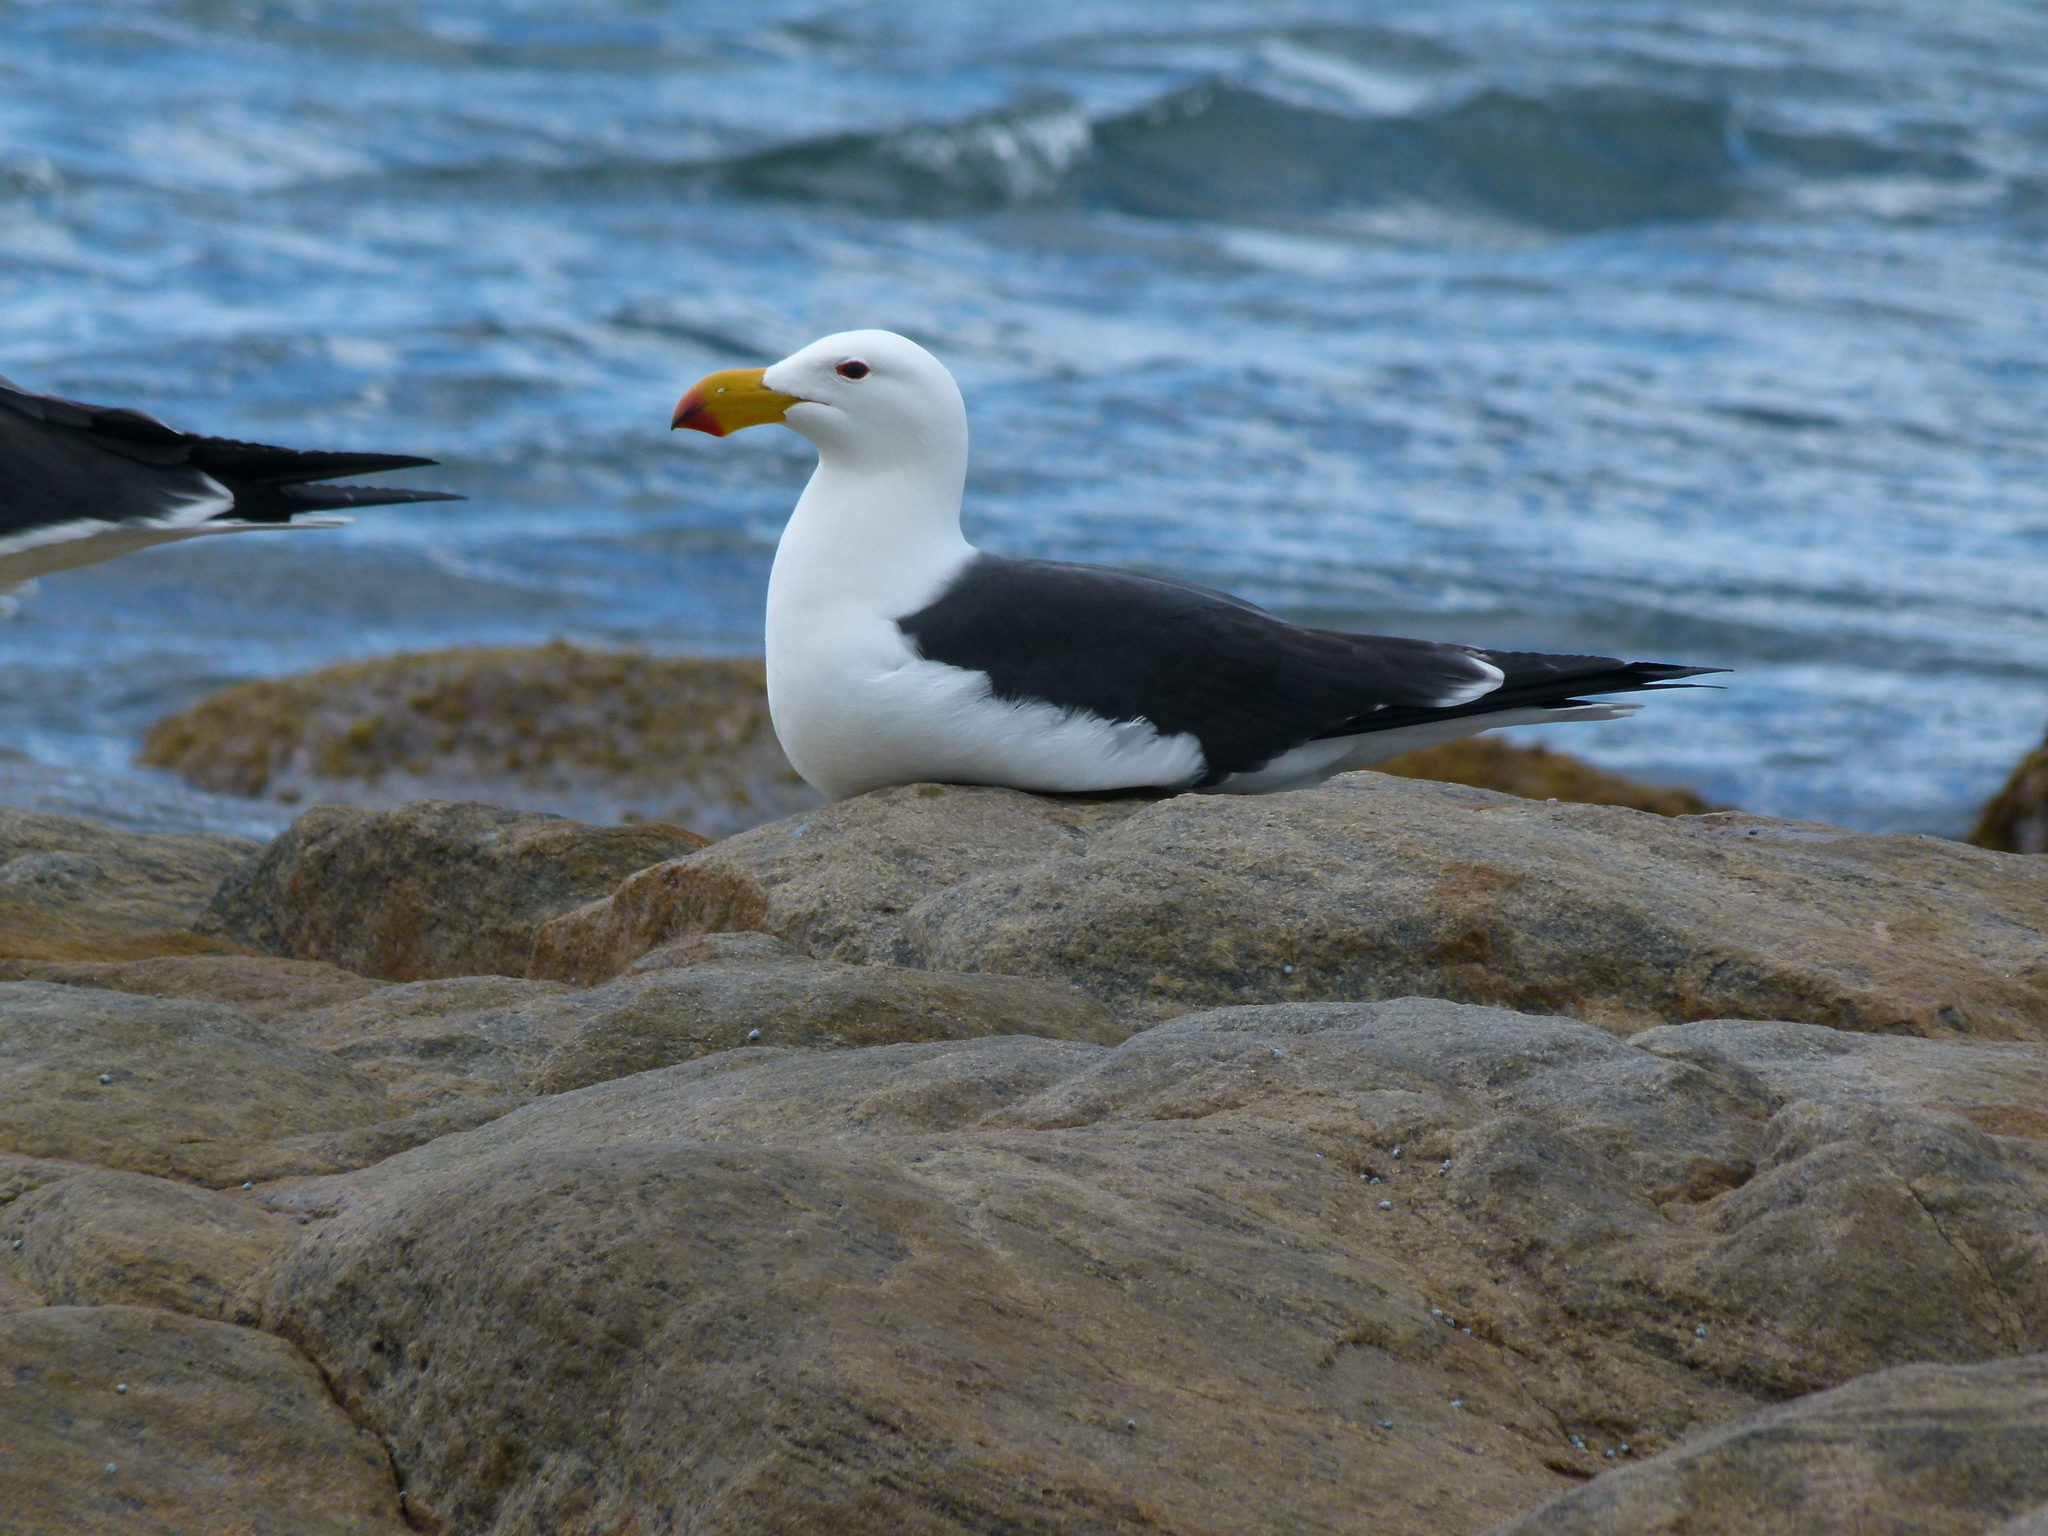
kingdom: Animalia
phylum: Chordata
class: Aves
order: Charadriiformes
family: Laridae
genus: Larus
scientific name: Larus pacificus
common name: Pacific gull
